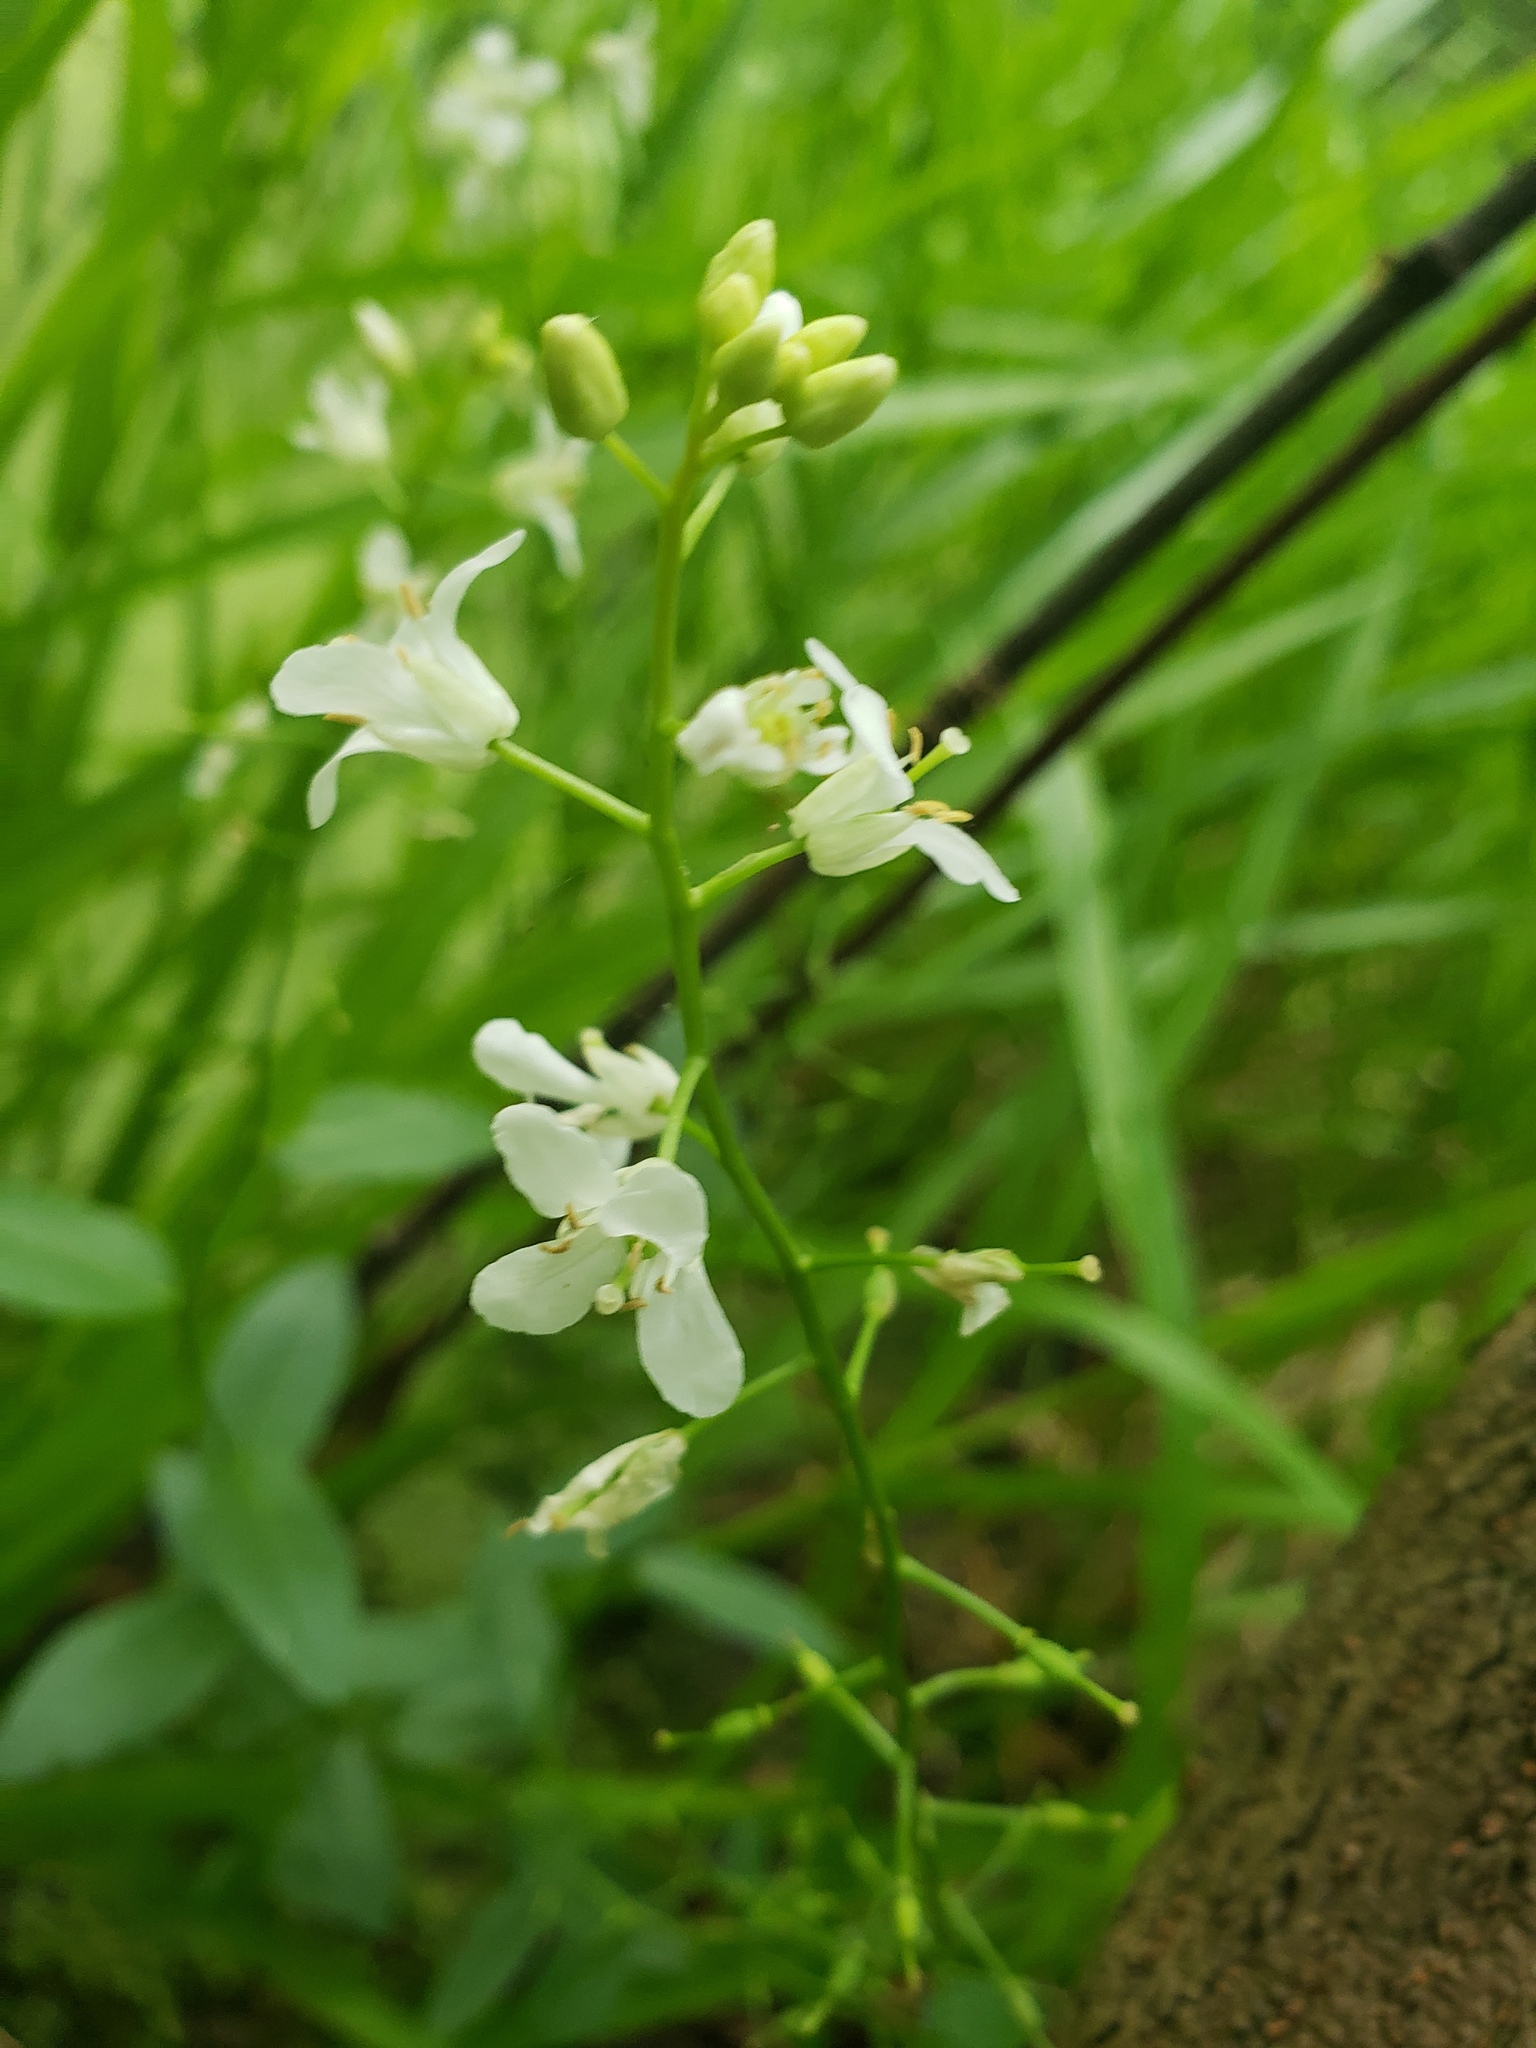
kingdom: Plantae
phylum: Tracheophyta
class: Magnoliopsida
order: Brassicales
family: Brassicaceae
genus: Cardamine
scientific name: Cardamine bulbosa
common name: Spring cress
